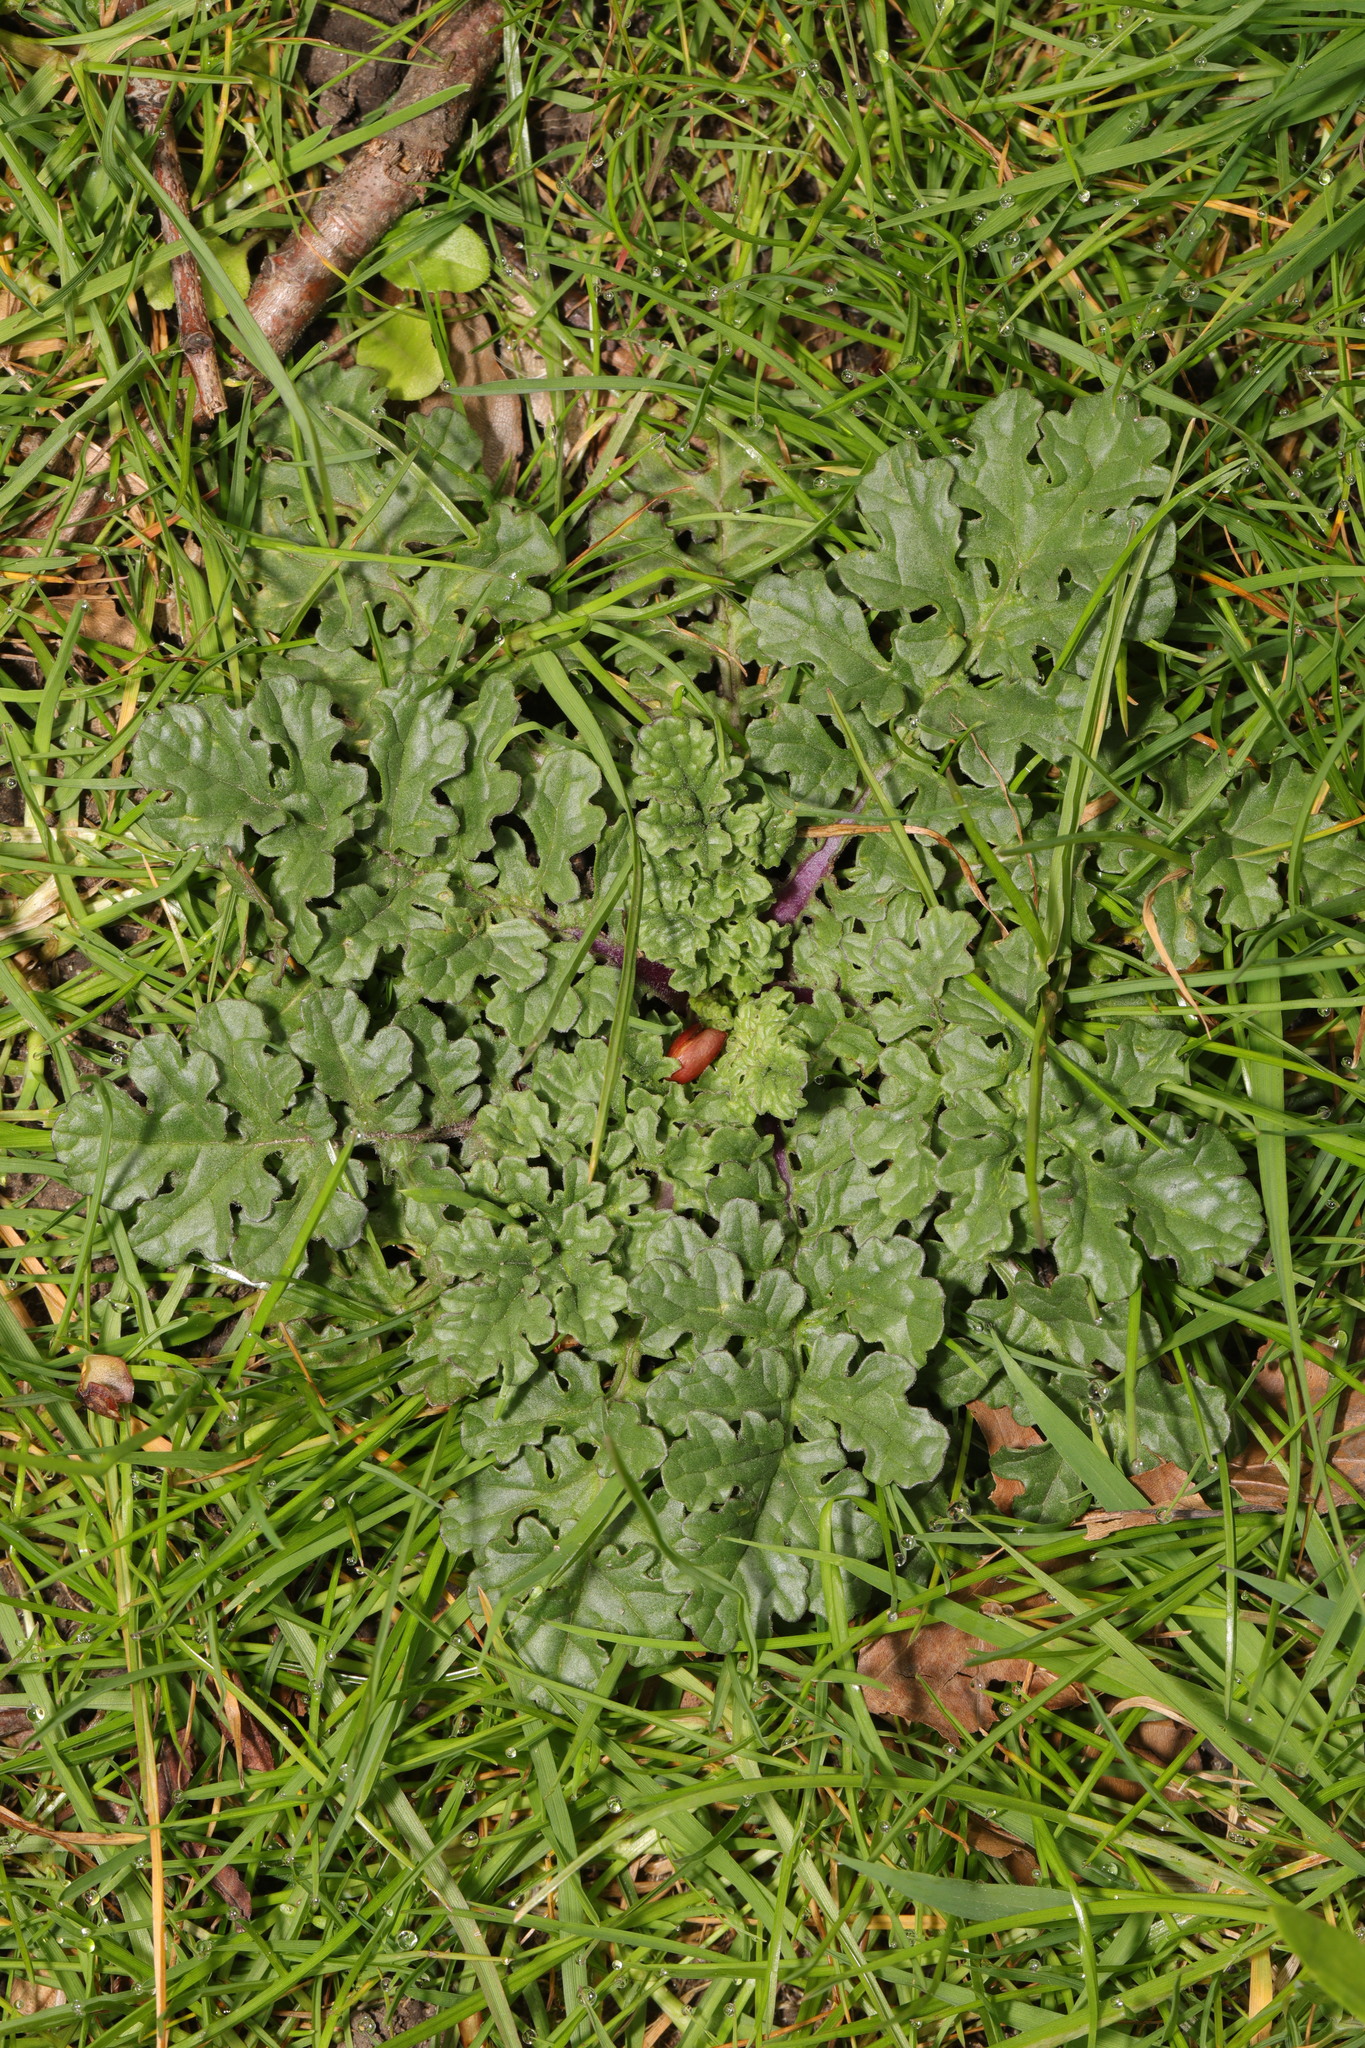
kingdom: Plantae
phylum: Tracheophyta
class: Magnoliopsida
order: Asterales
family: Asteraceae
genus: Jacobaea
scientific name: Jacobaea vulgaris
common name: Stinking willie
